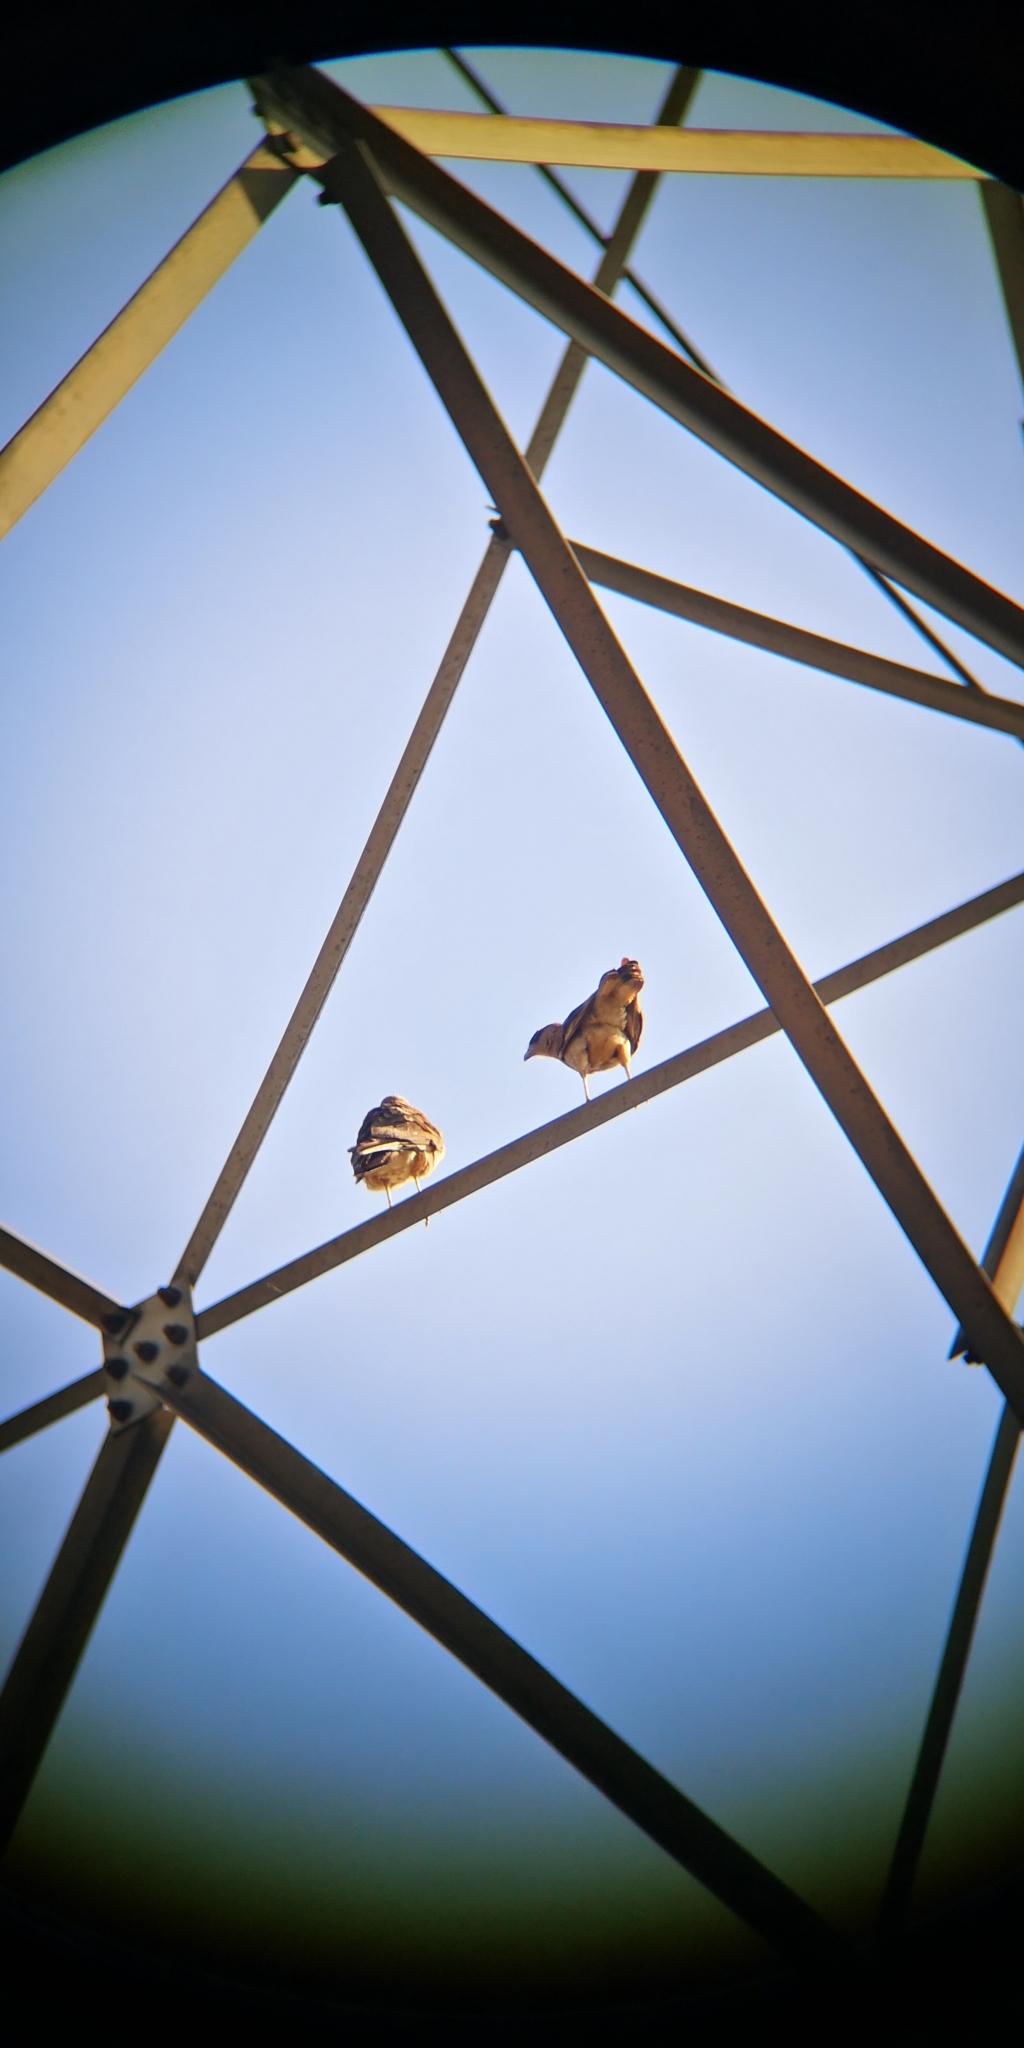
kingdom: Animalia
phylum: Chordata
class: Aves
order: Falconiformes
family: Falconidae
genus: Daptrius
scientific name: Daptrius
